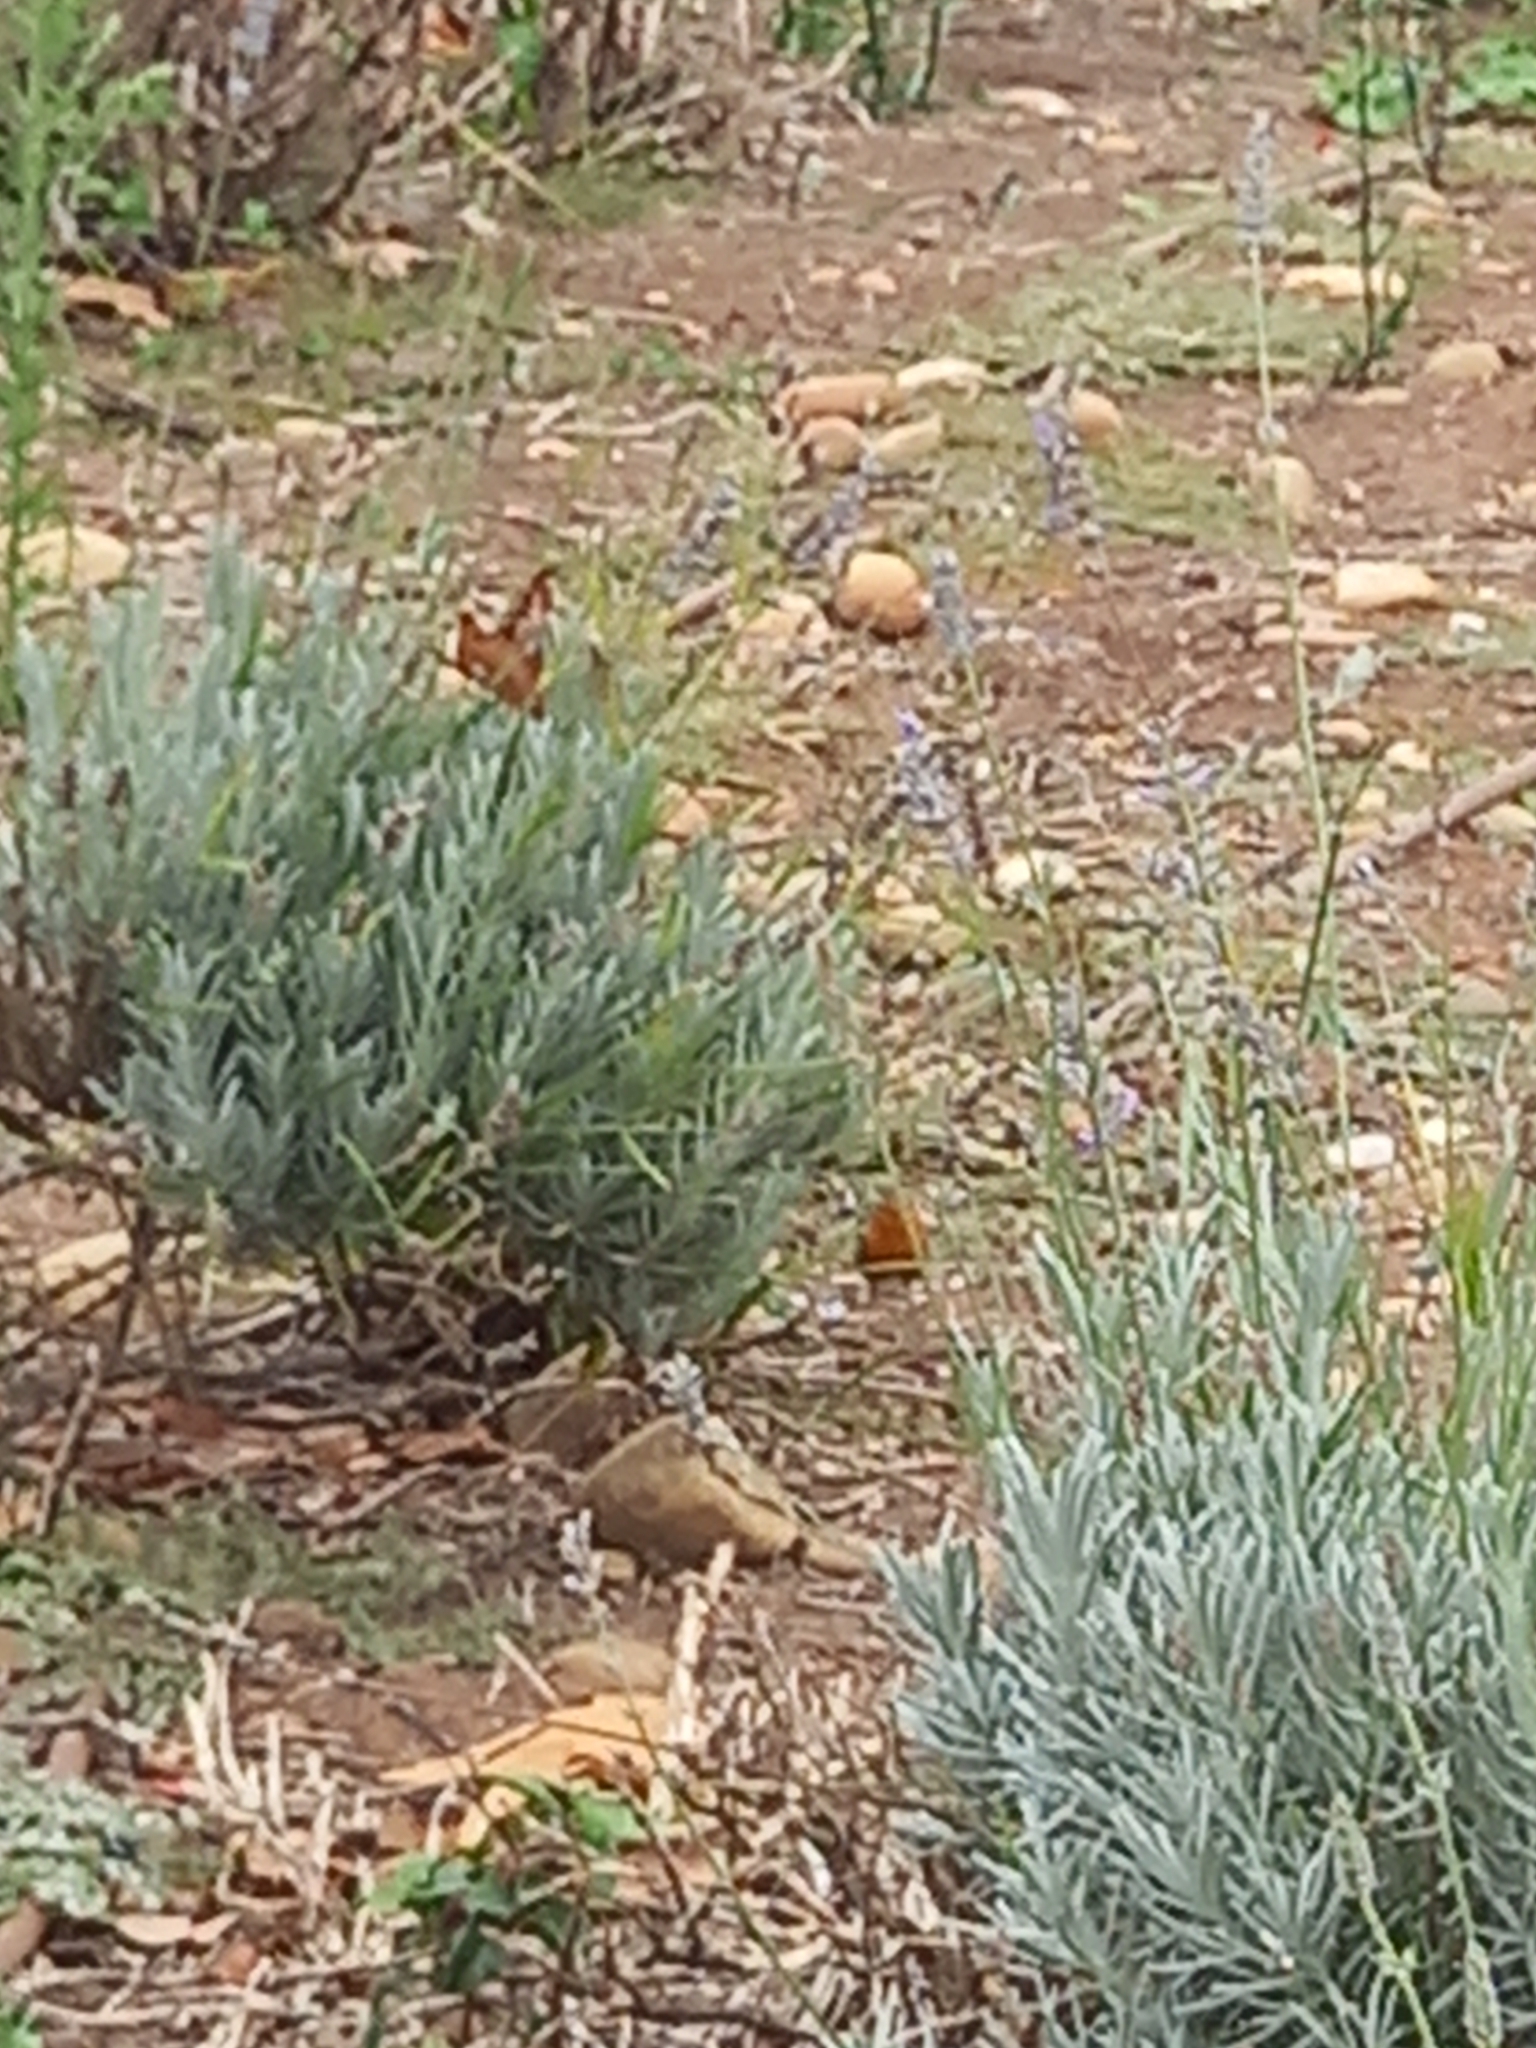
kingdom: Animalia
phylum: Chordata
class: Aves
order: Passeriformes
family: Muscicapidae
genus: Erithacus
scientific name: Erithacus rubecula
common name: European robin
